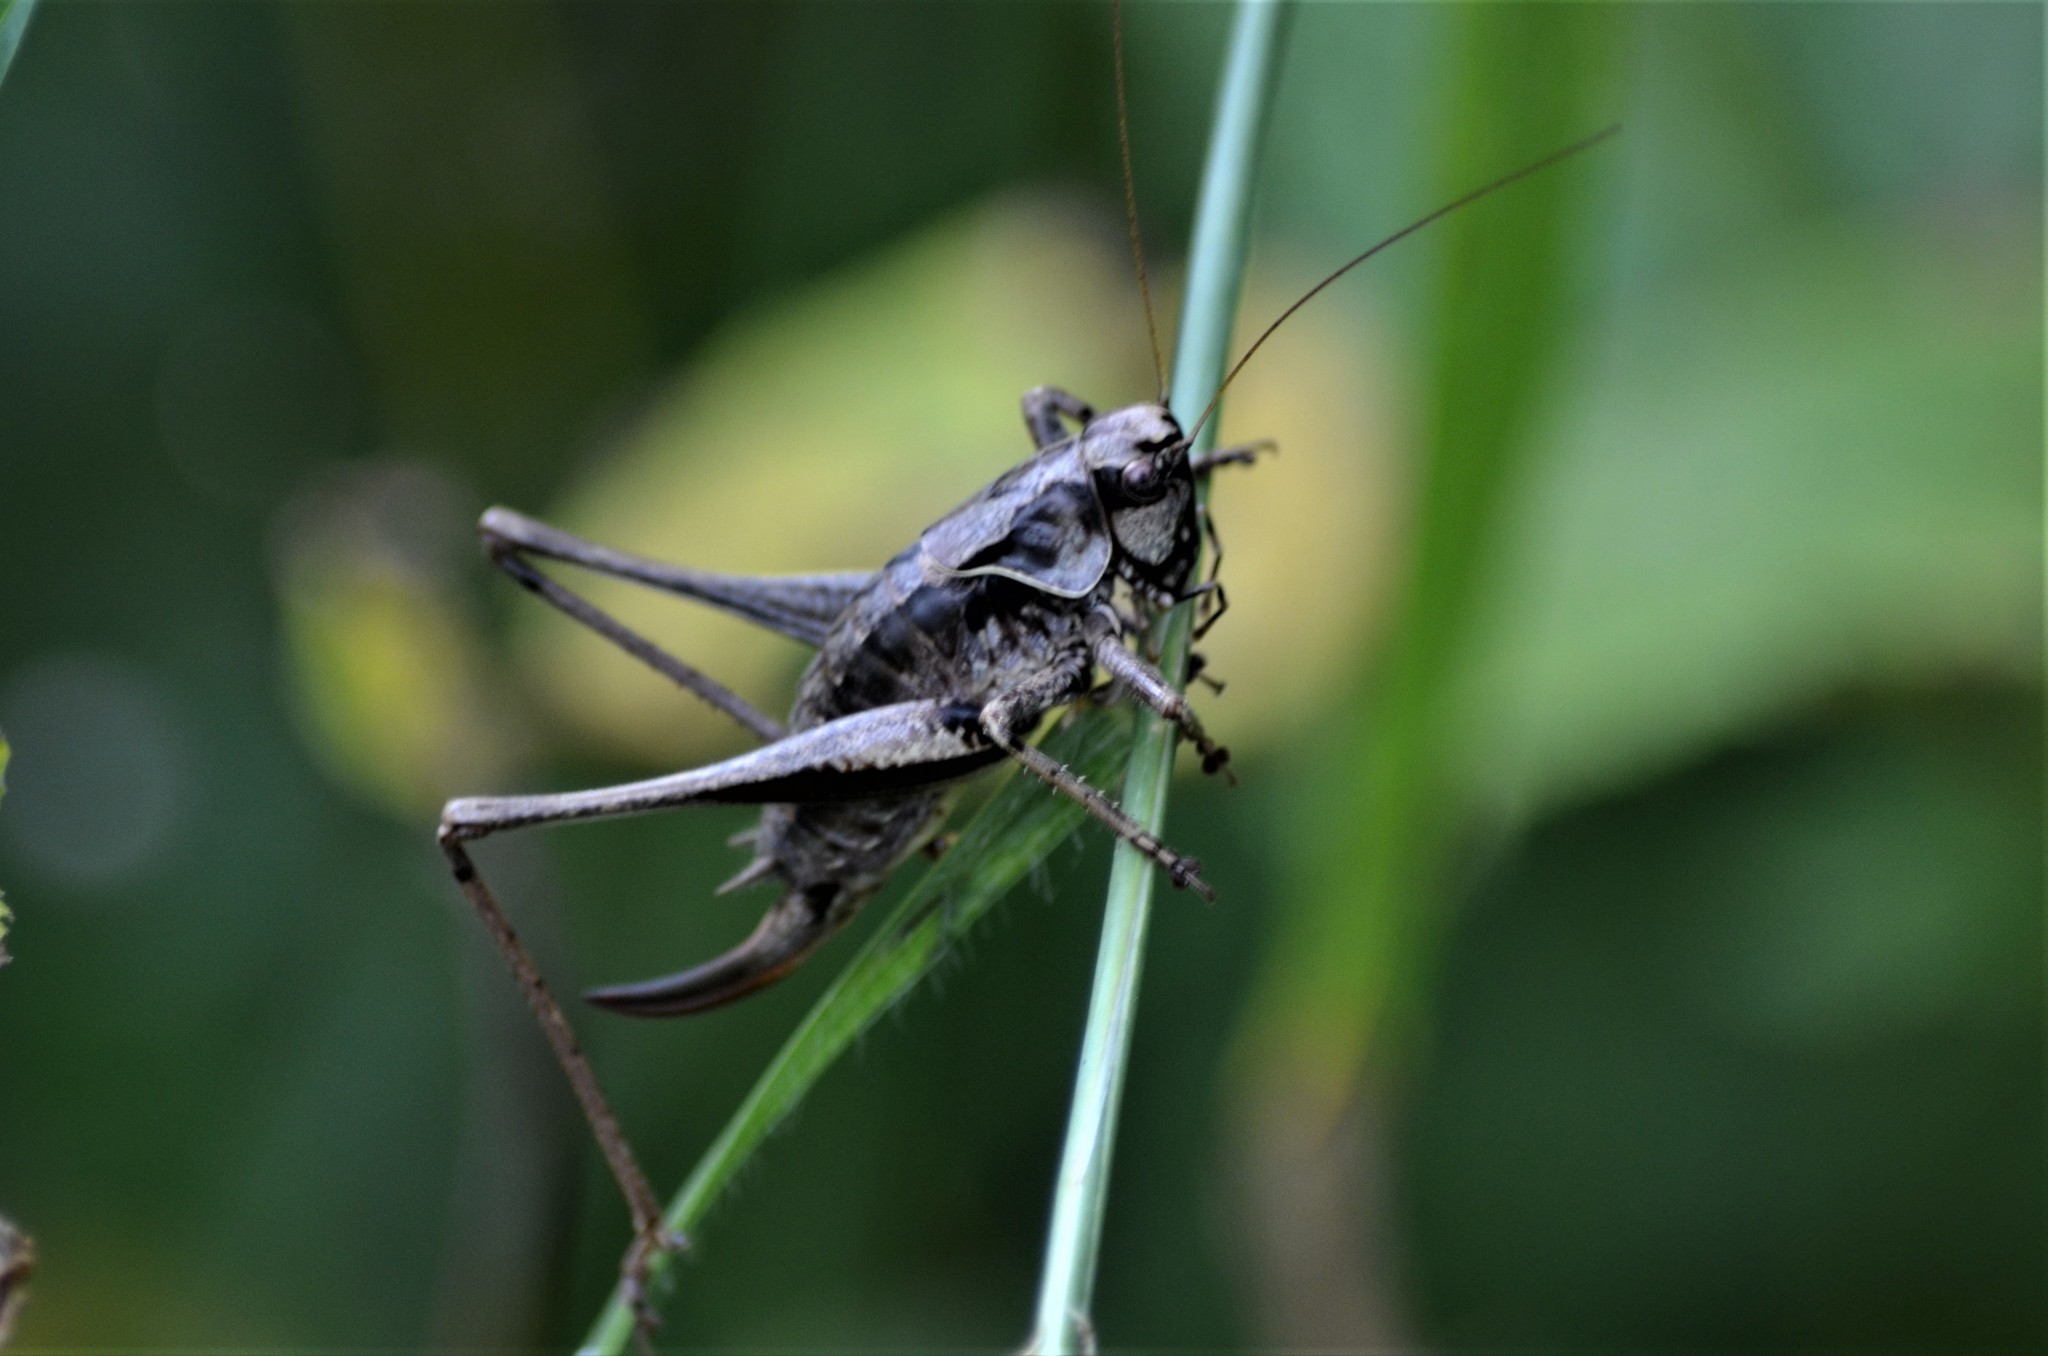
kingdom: Animalia
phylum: Arthropoda
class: Insecta
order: Orthoptera
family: Tettigoniidae
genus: Pholidoptera
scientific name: Pholidoptera griseoaptera
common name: Dark bush-cricket
